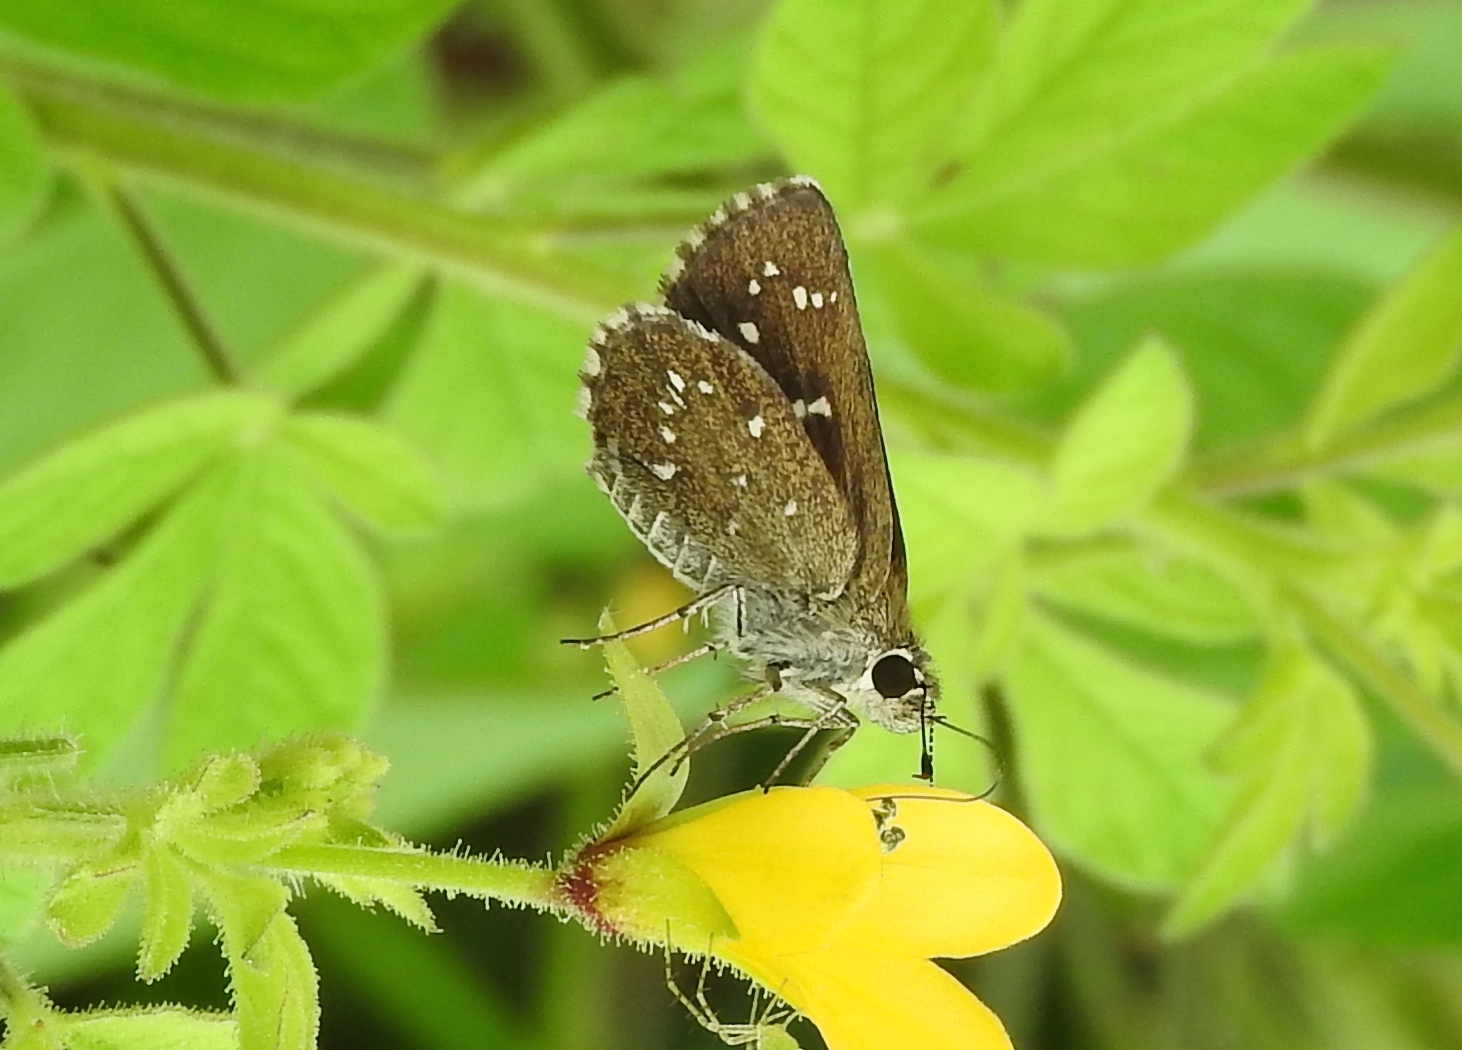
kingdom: Animalia
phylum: Arthropoda
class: Insecta
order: Lepidoptera
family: Hesperiidae
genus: Amblyscirtes
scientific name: Amblyscirtes
